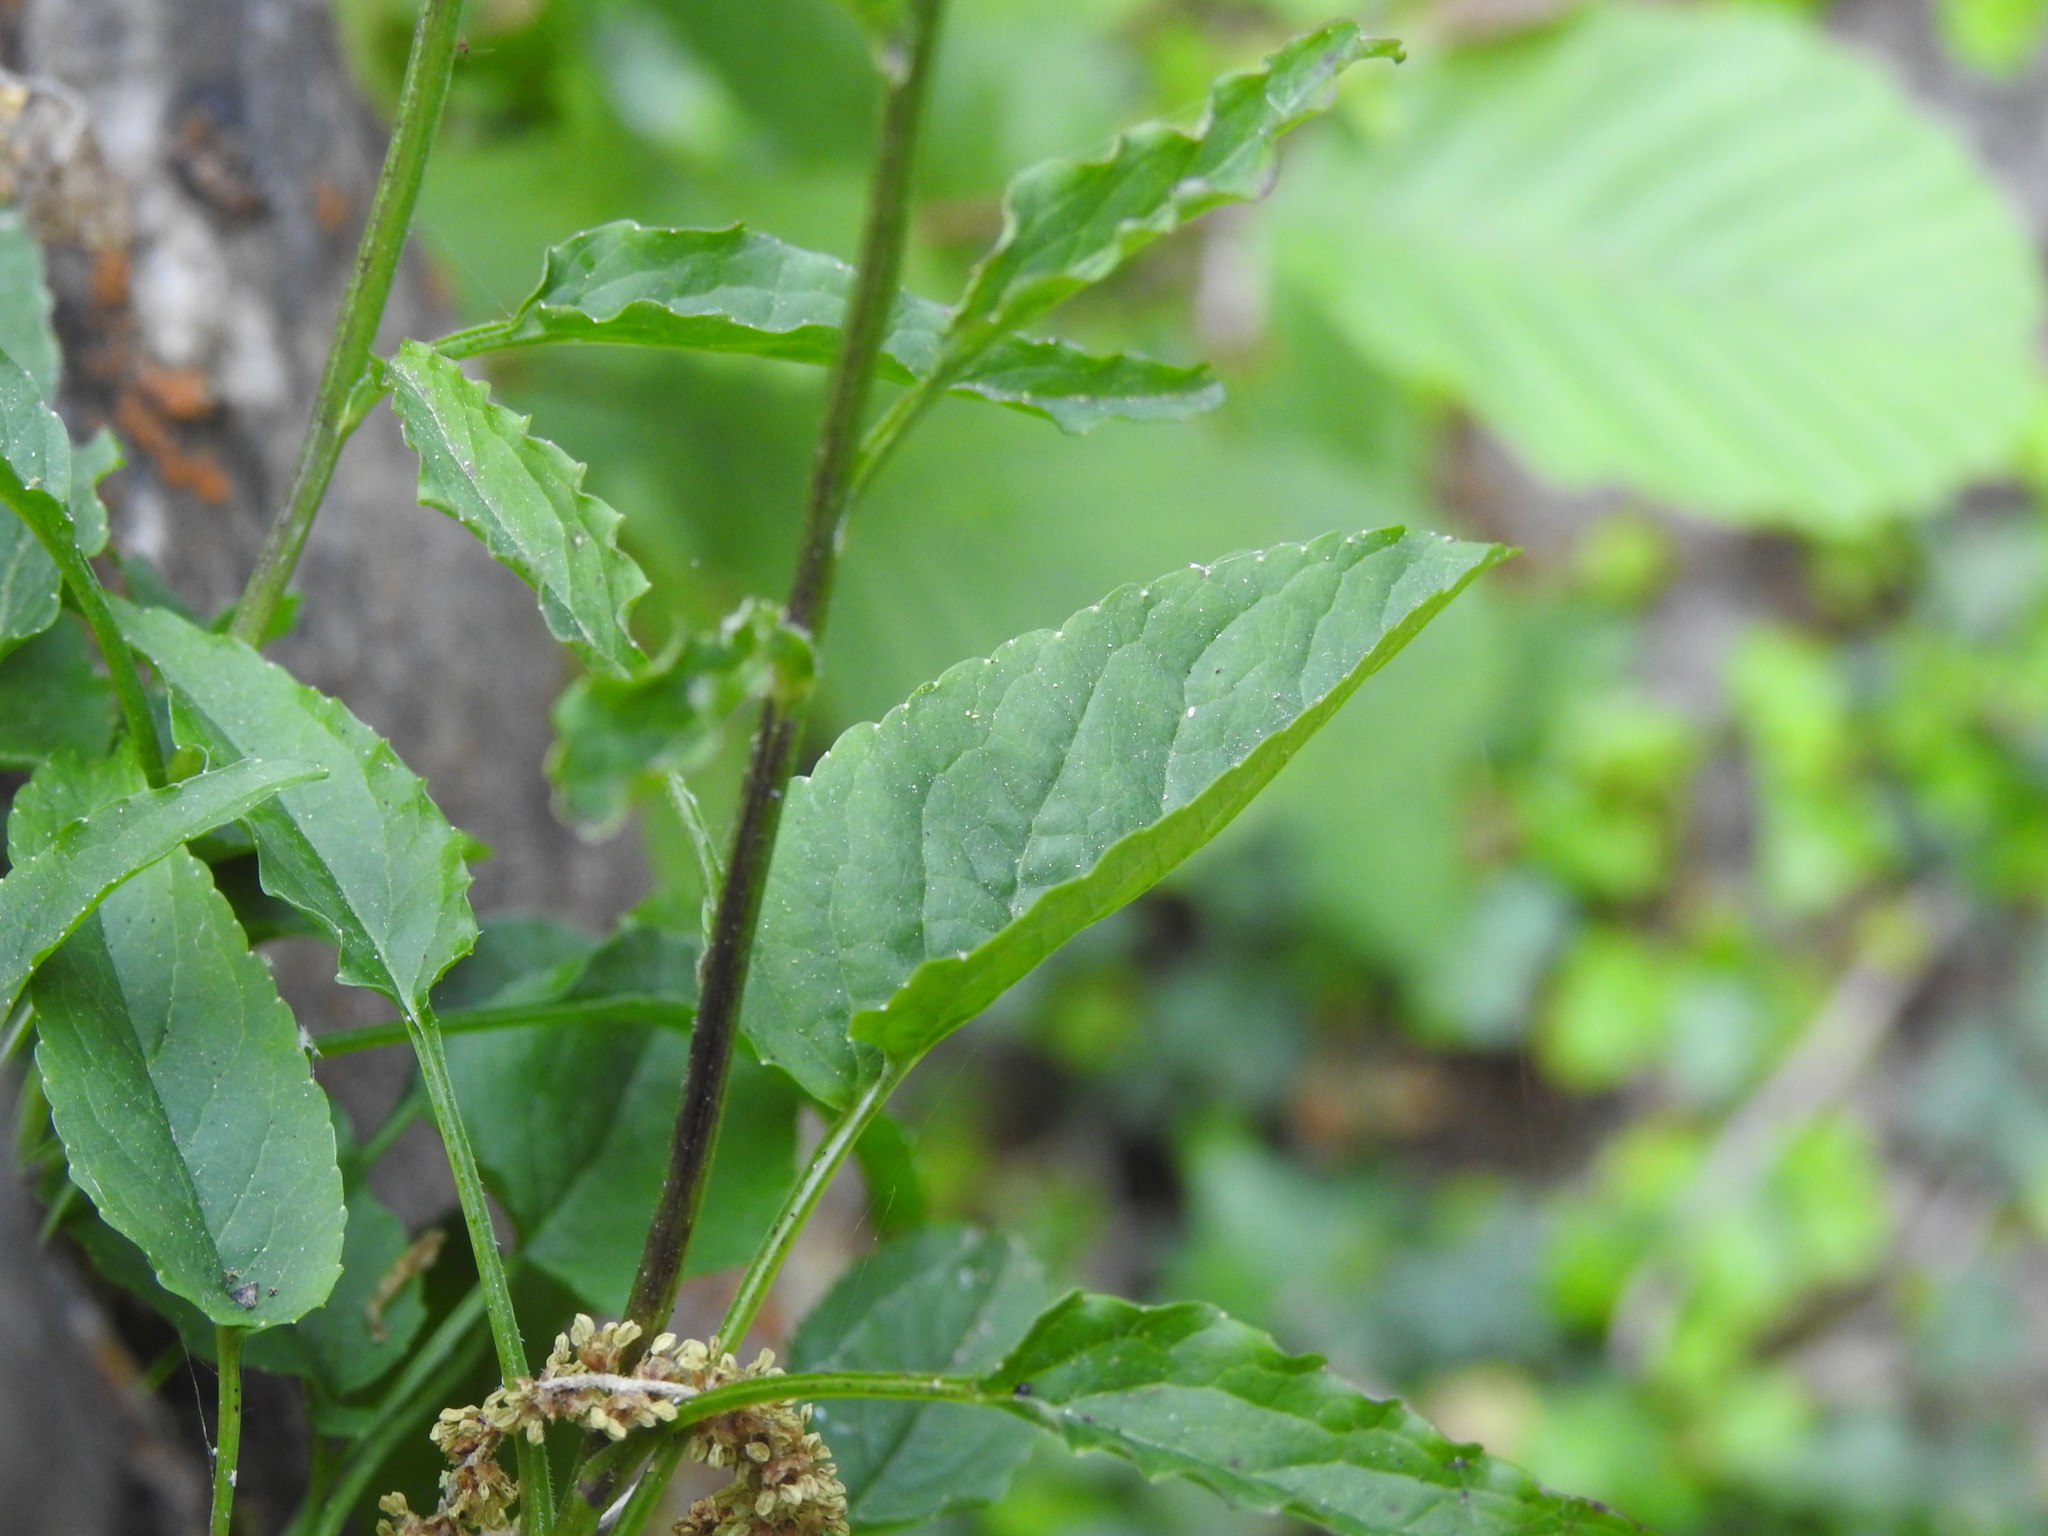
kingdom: Plantae
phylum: Tracheophyta
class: Magnoliopsida
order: Asterales
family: Campanulaceae
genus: Phyteuma
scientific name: Phyteuma orbiculare
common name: Round-headed rampion
